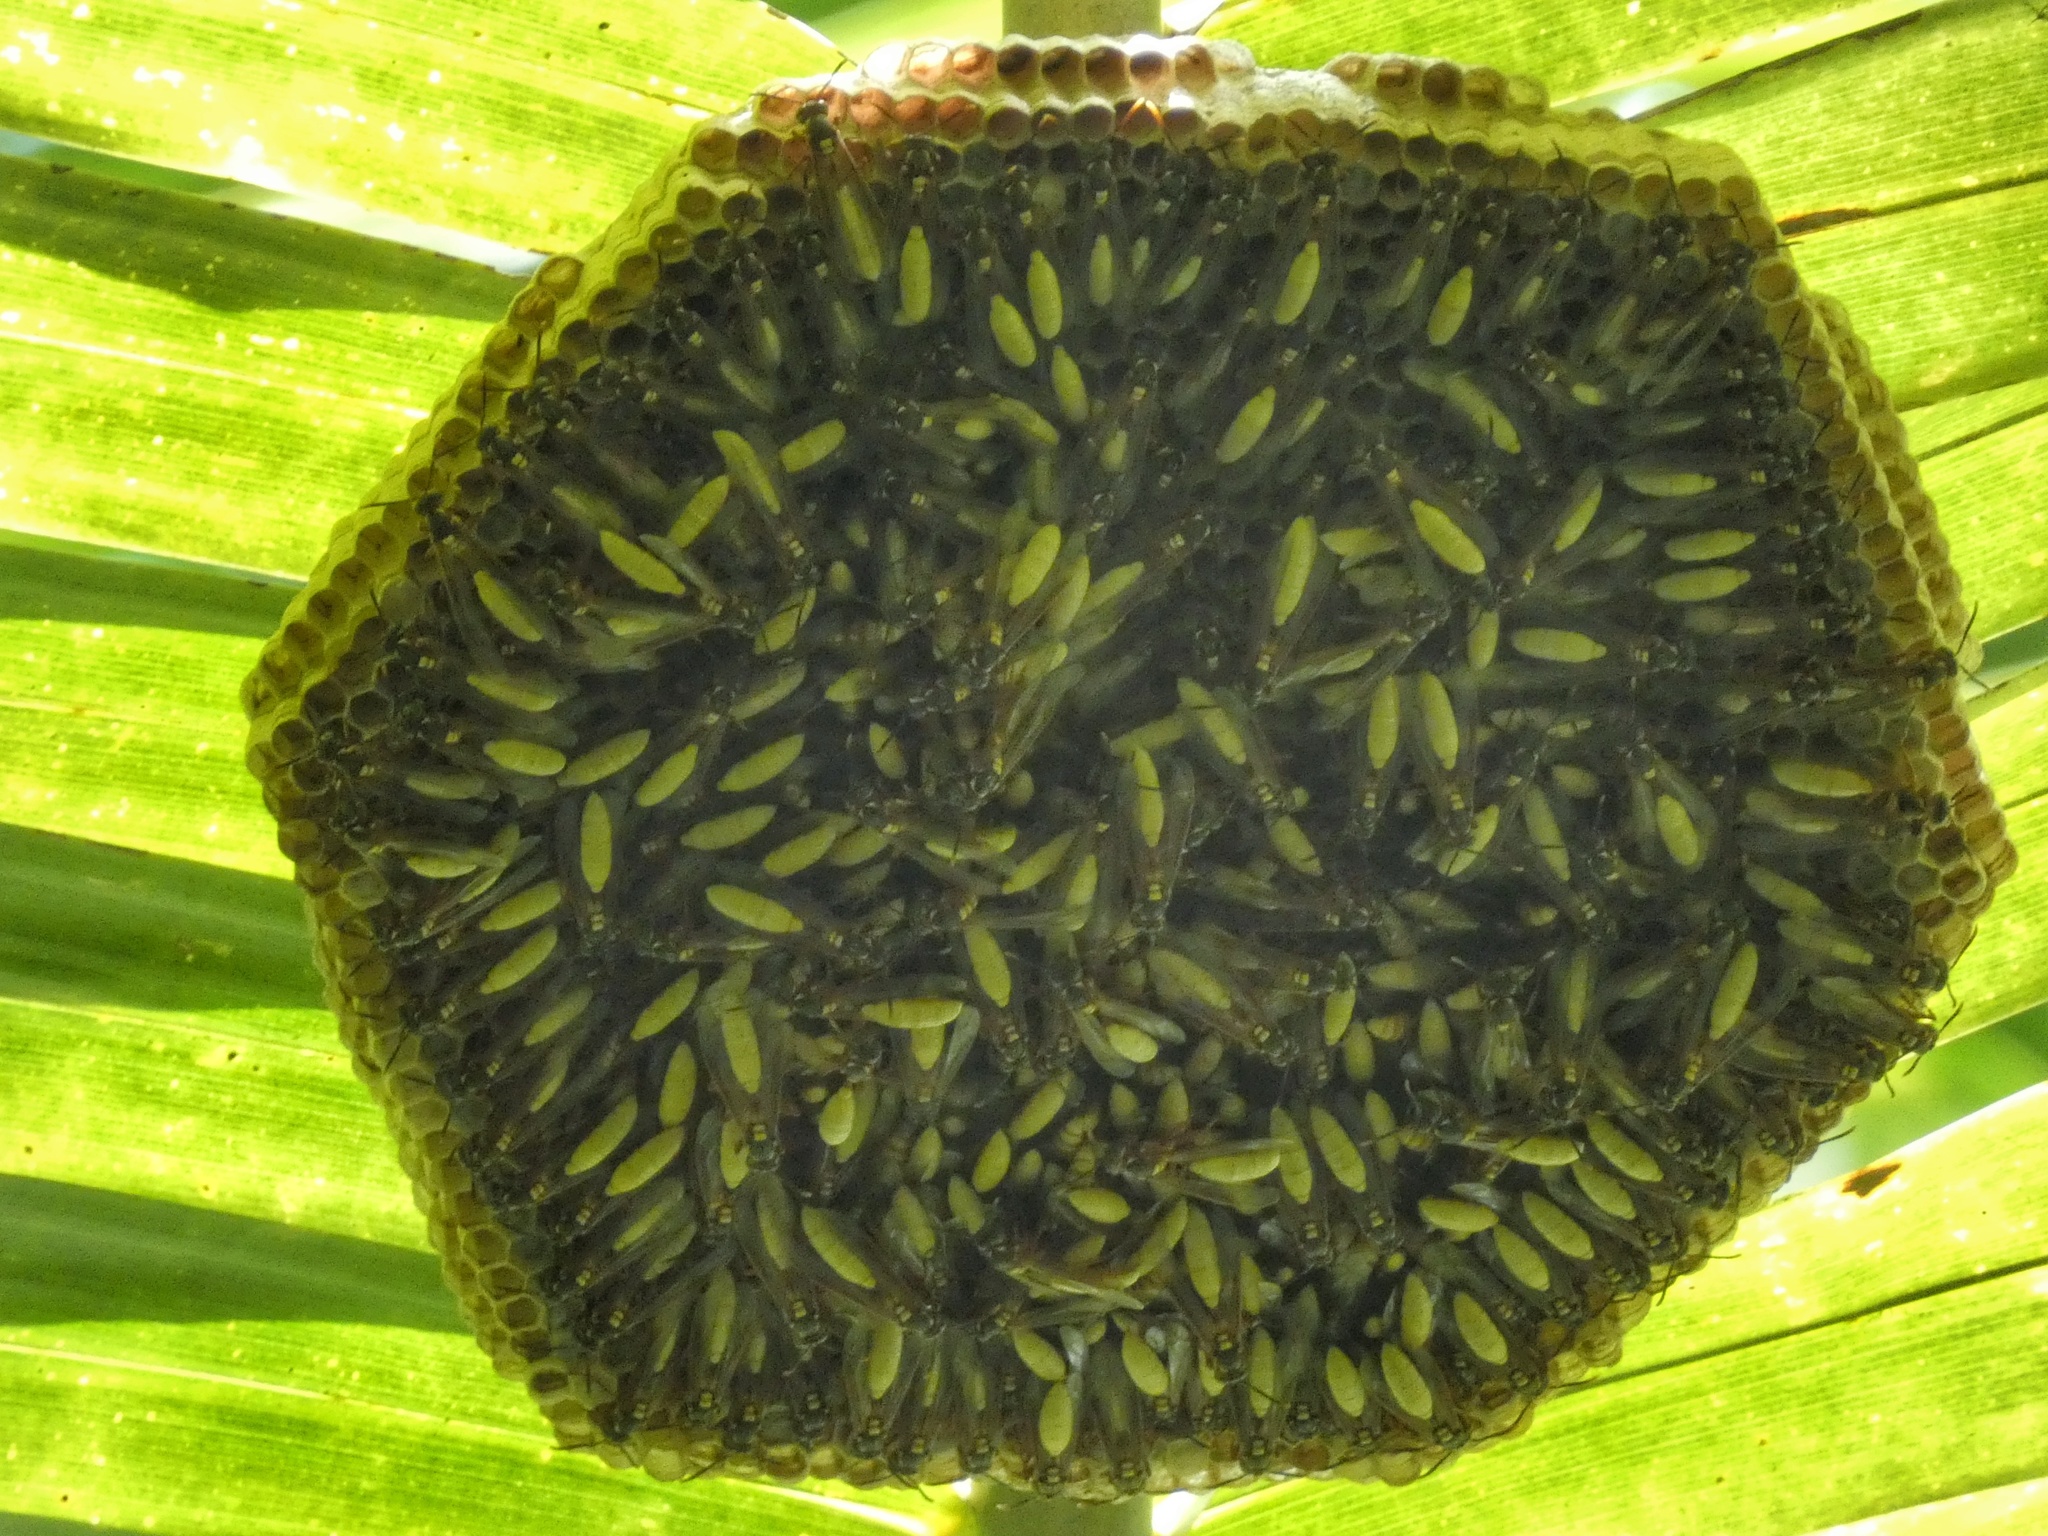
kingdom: Animalia
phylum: Arthropoda
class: Insecta
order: Hymenoptera
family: Vespidae
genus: Apoica
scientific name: Apoica pallens
